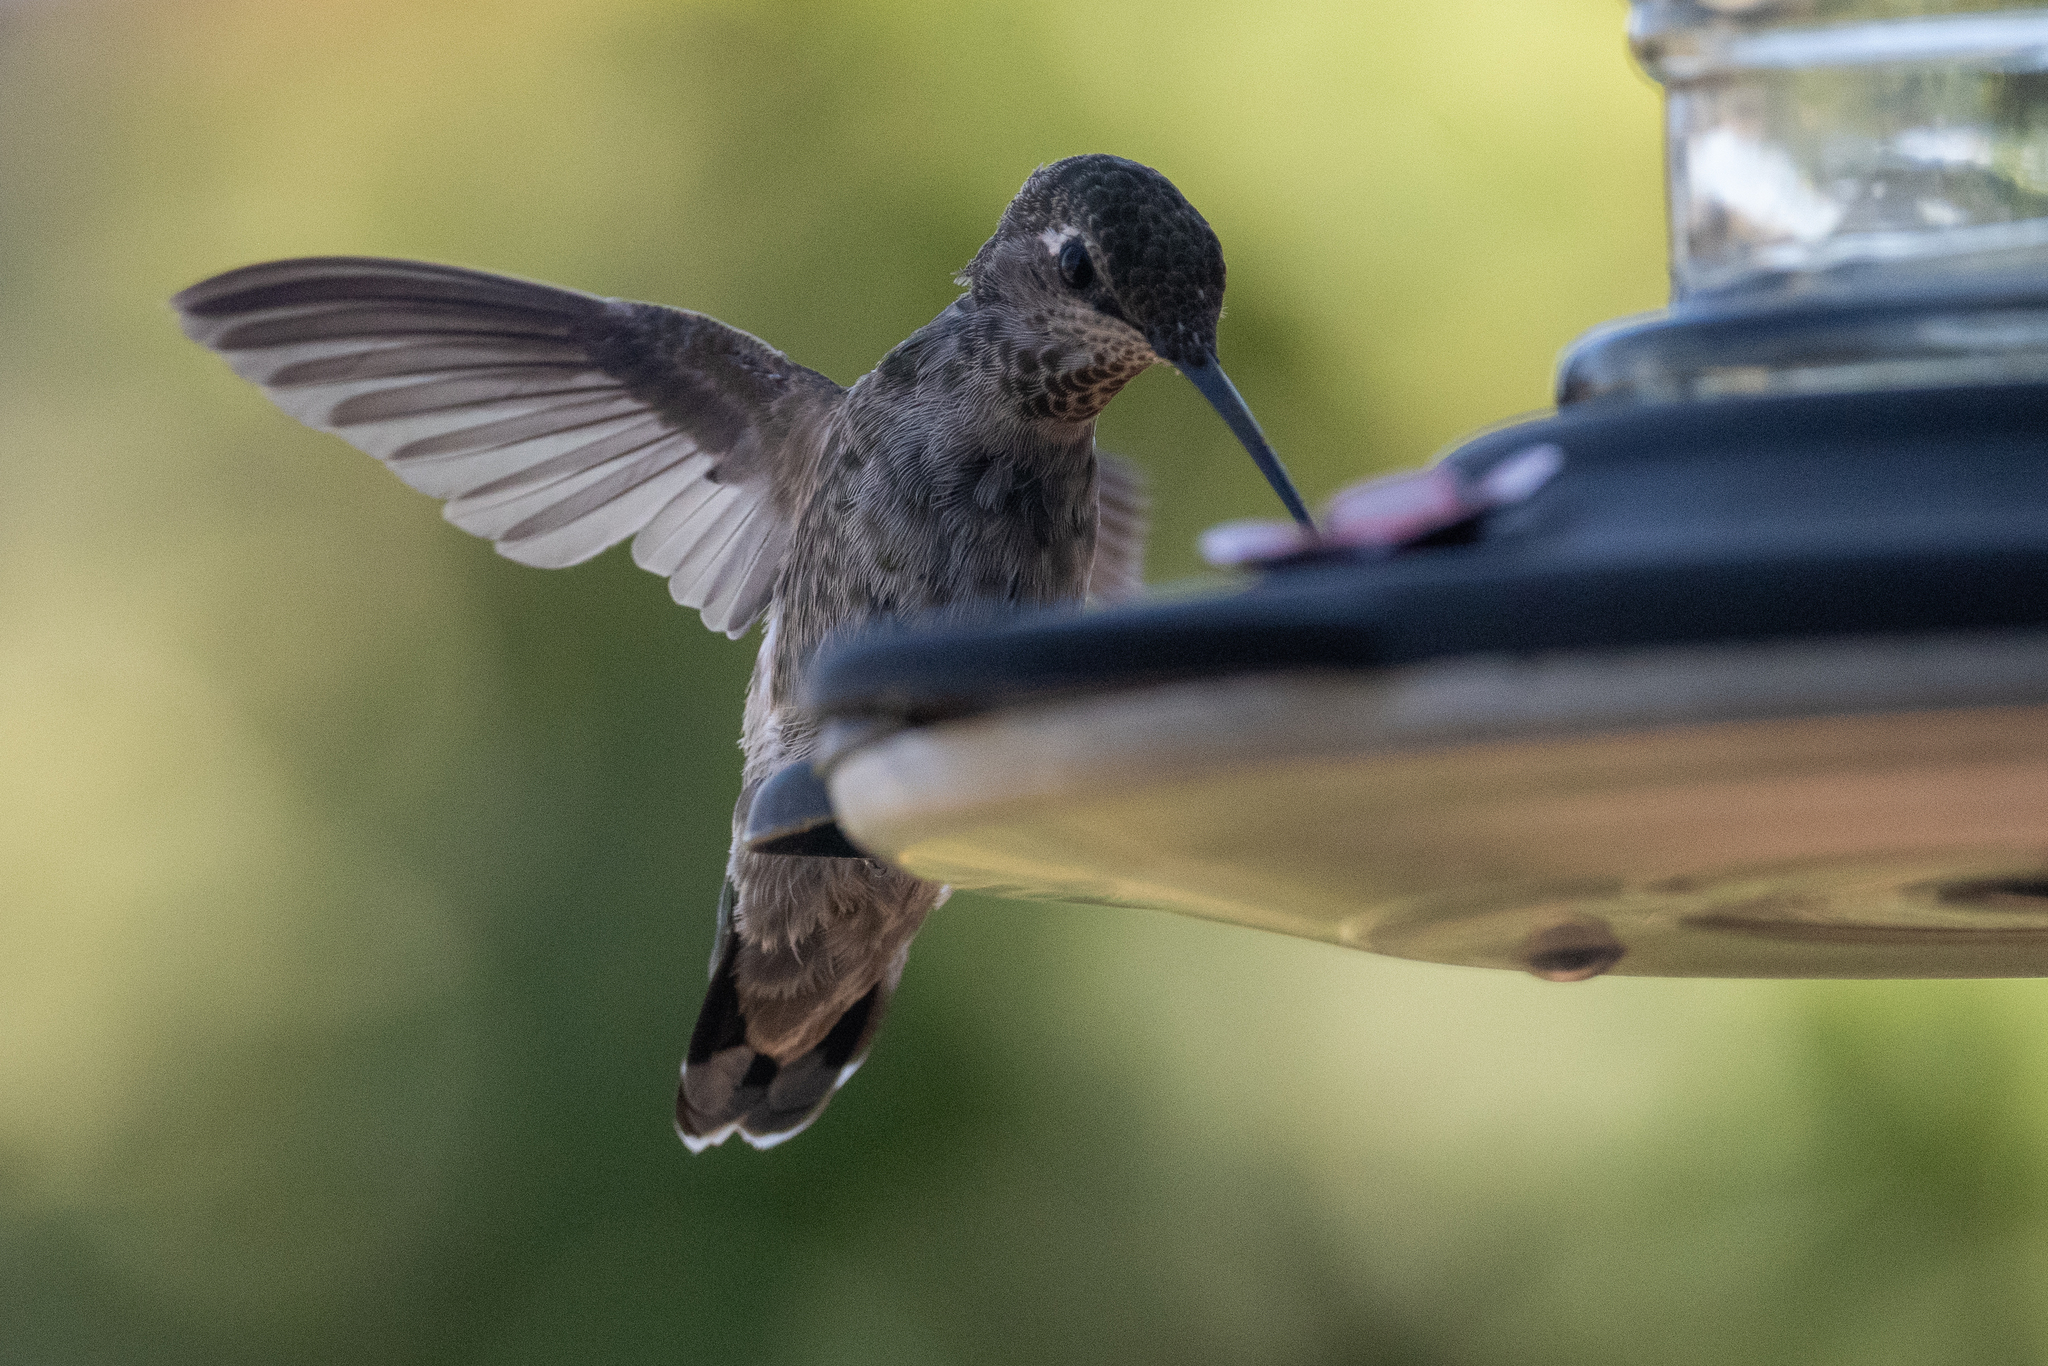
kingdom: Animalia
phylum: Chordata
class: Aves
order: Apodiformes
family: Trochilidae
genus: Calypte
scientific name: Calypte anna
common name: Anna's hummingbird
